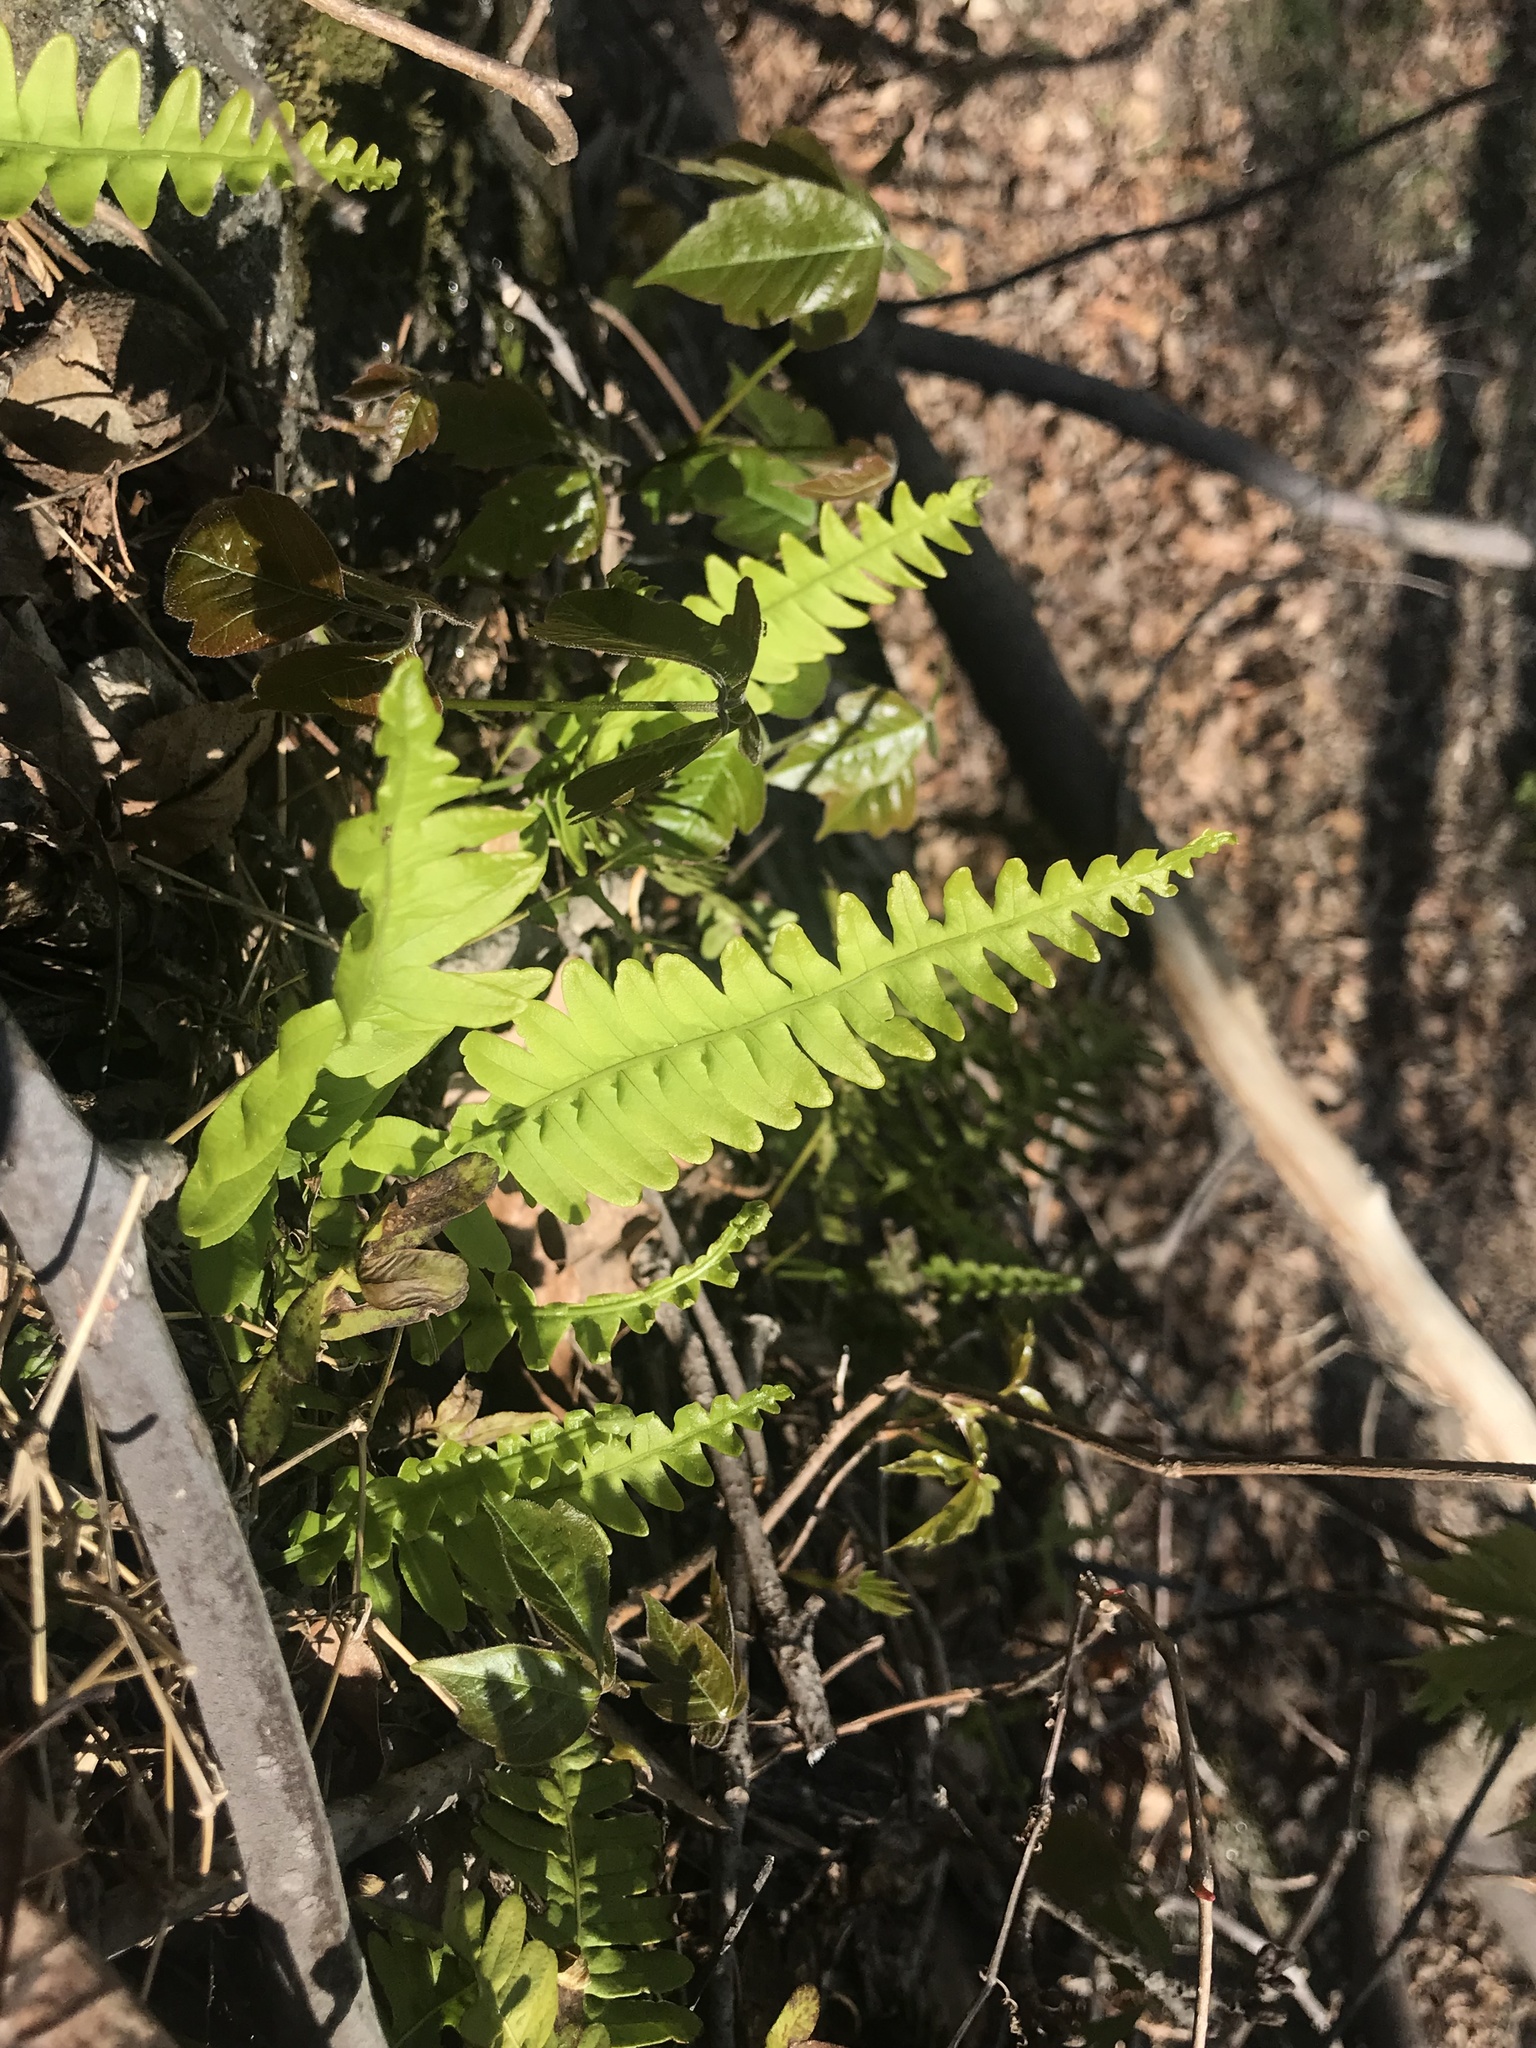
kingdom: Plantae
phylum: Tracheophyta
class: Polypodiopsida
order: Polypodiales
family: Polypodiaceae
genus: Polypodium
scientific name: Polypodium virginianum
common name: American wall fern
